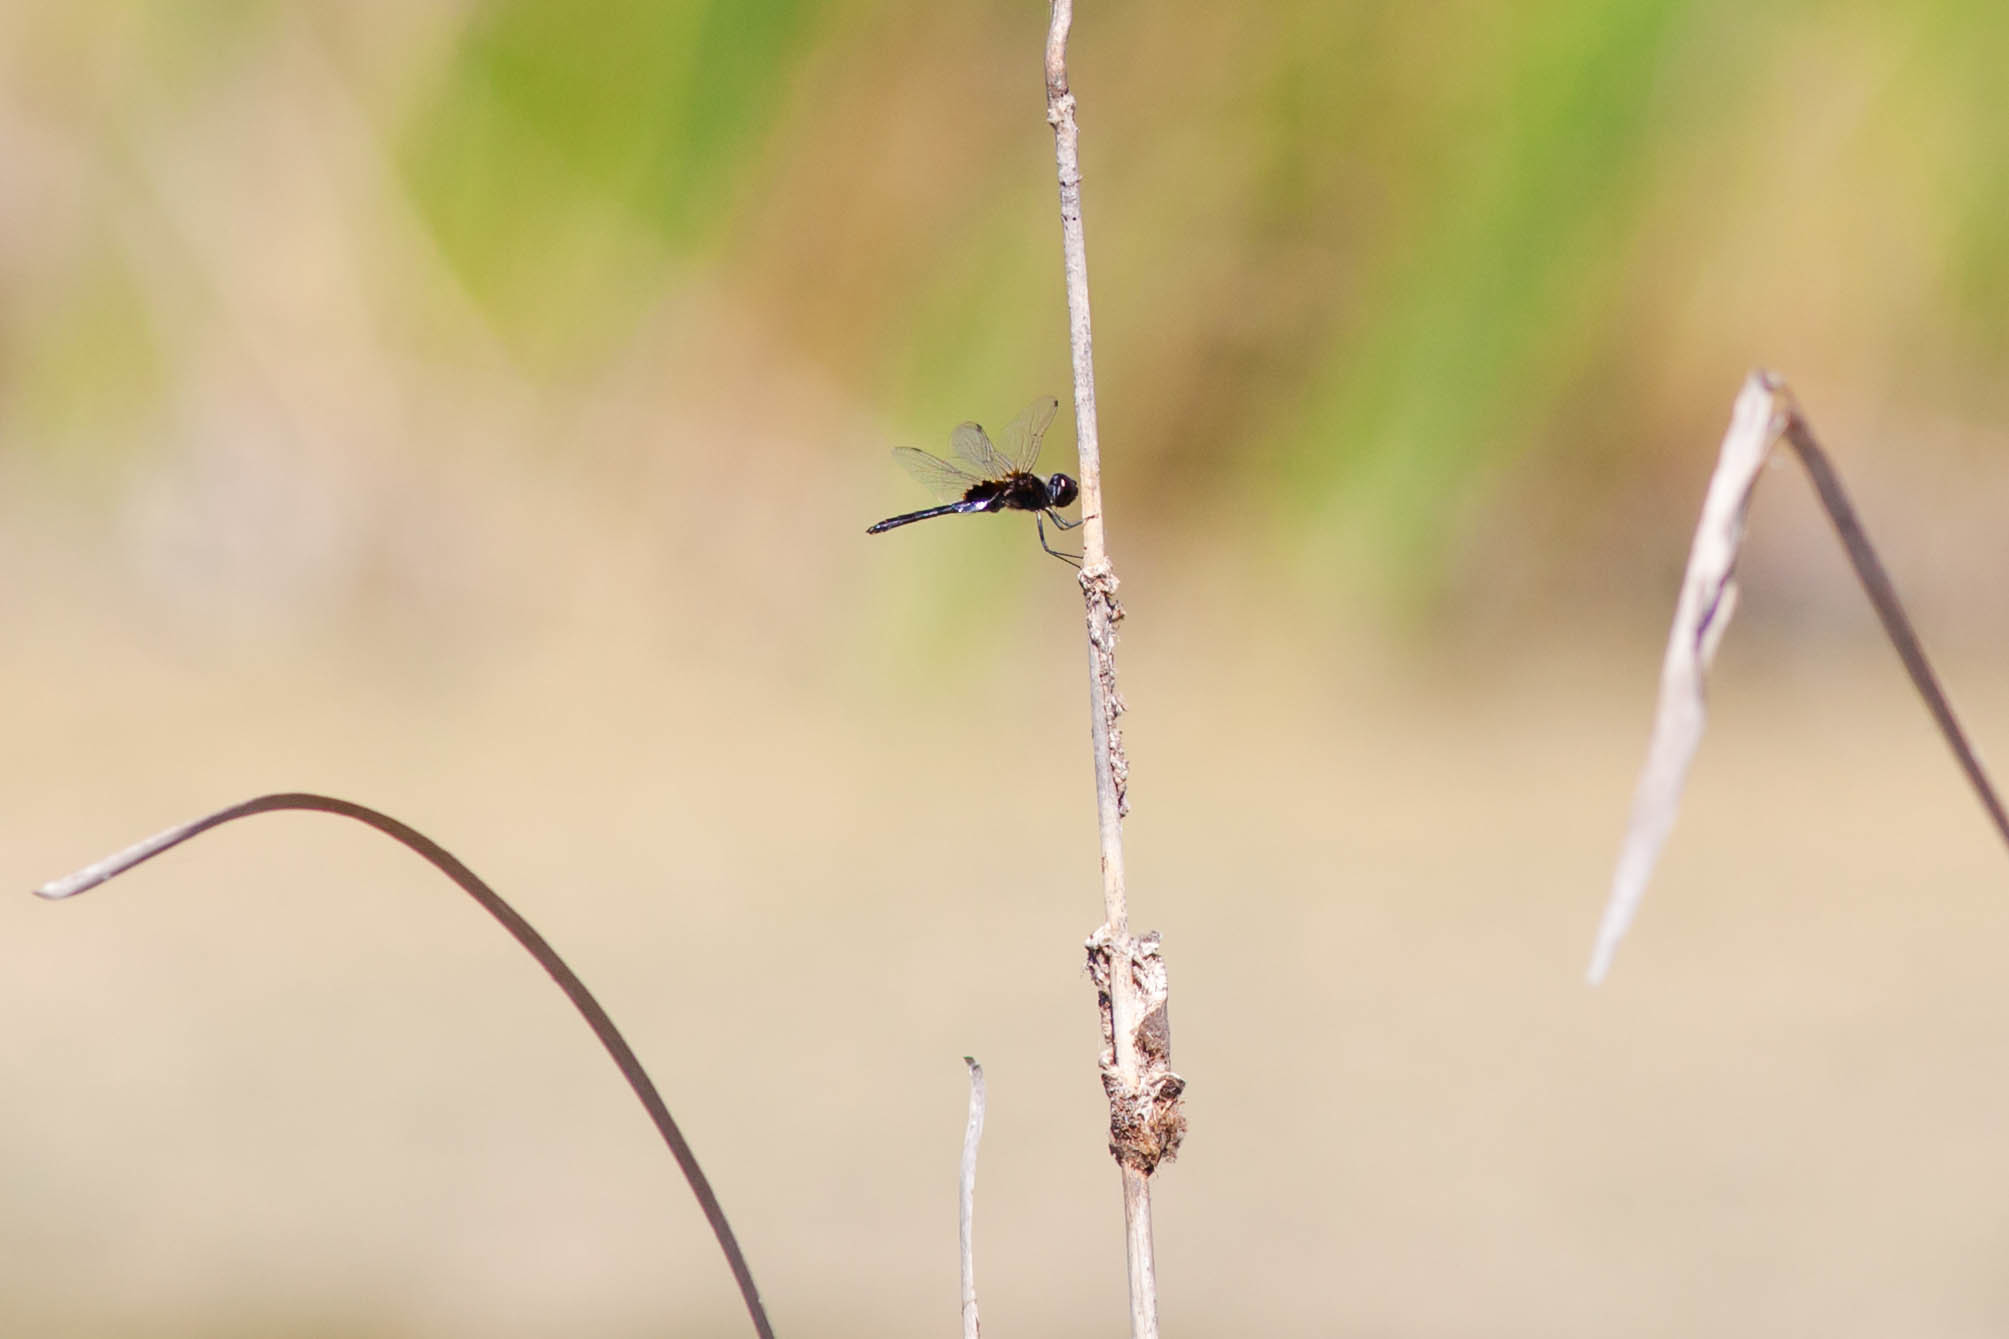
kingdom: Animalia
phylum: Arthropoda
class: Insecta
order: Odonata
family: Libellulidae
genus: Macrodiplax
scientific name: Macrodiplax balteata
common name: Marl pennant
